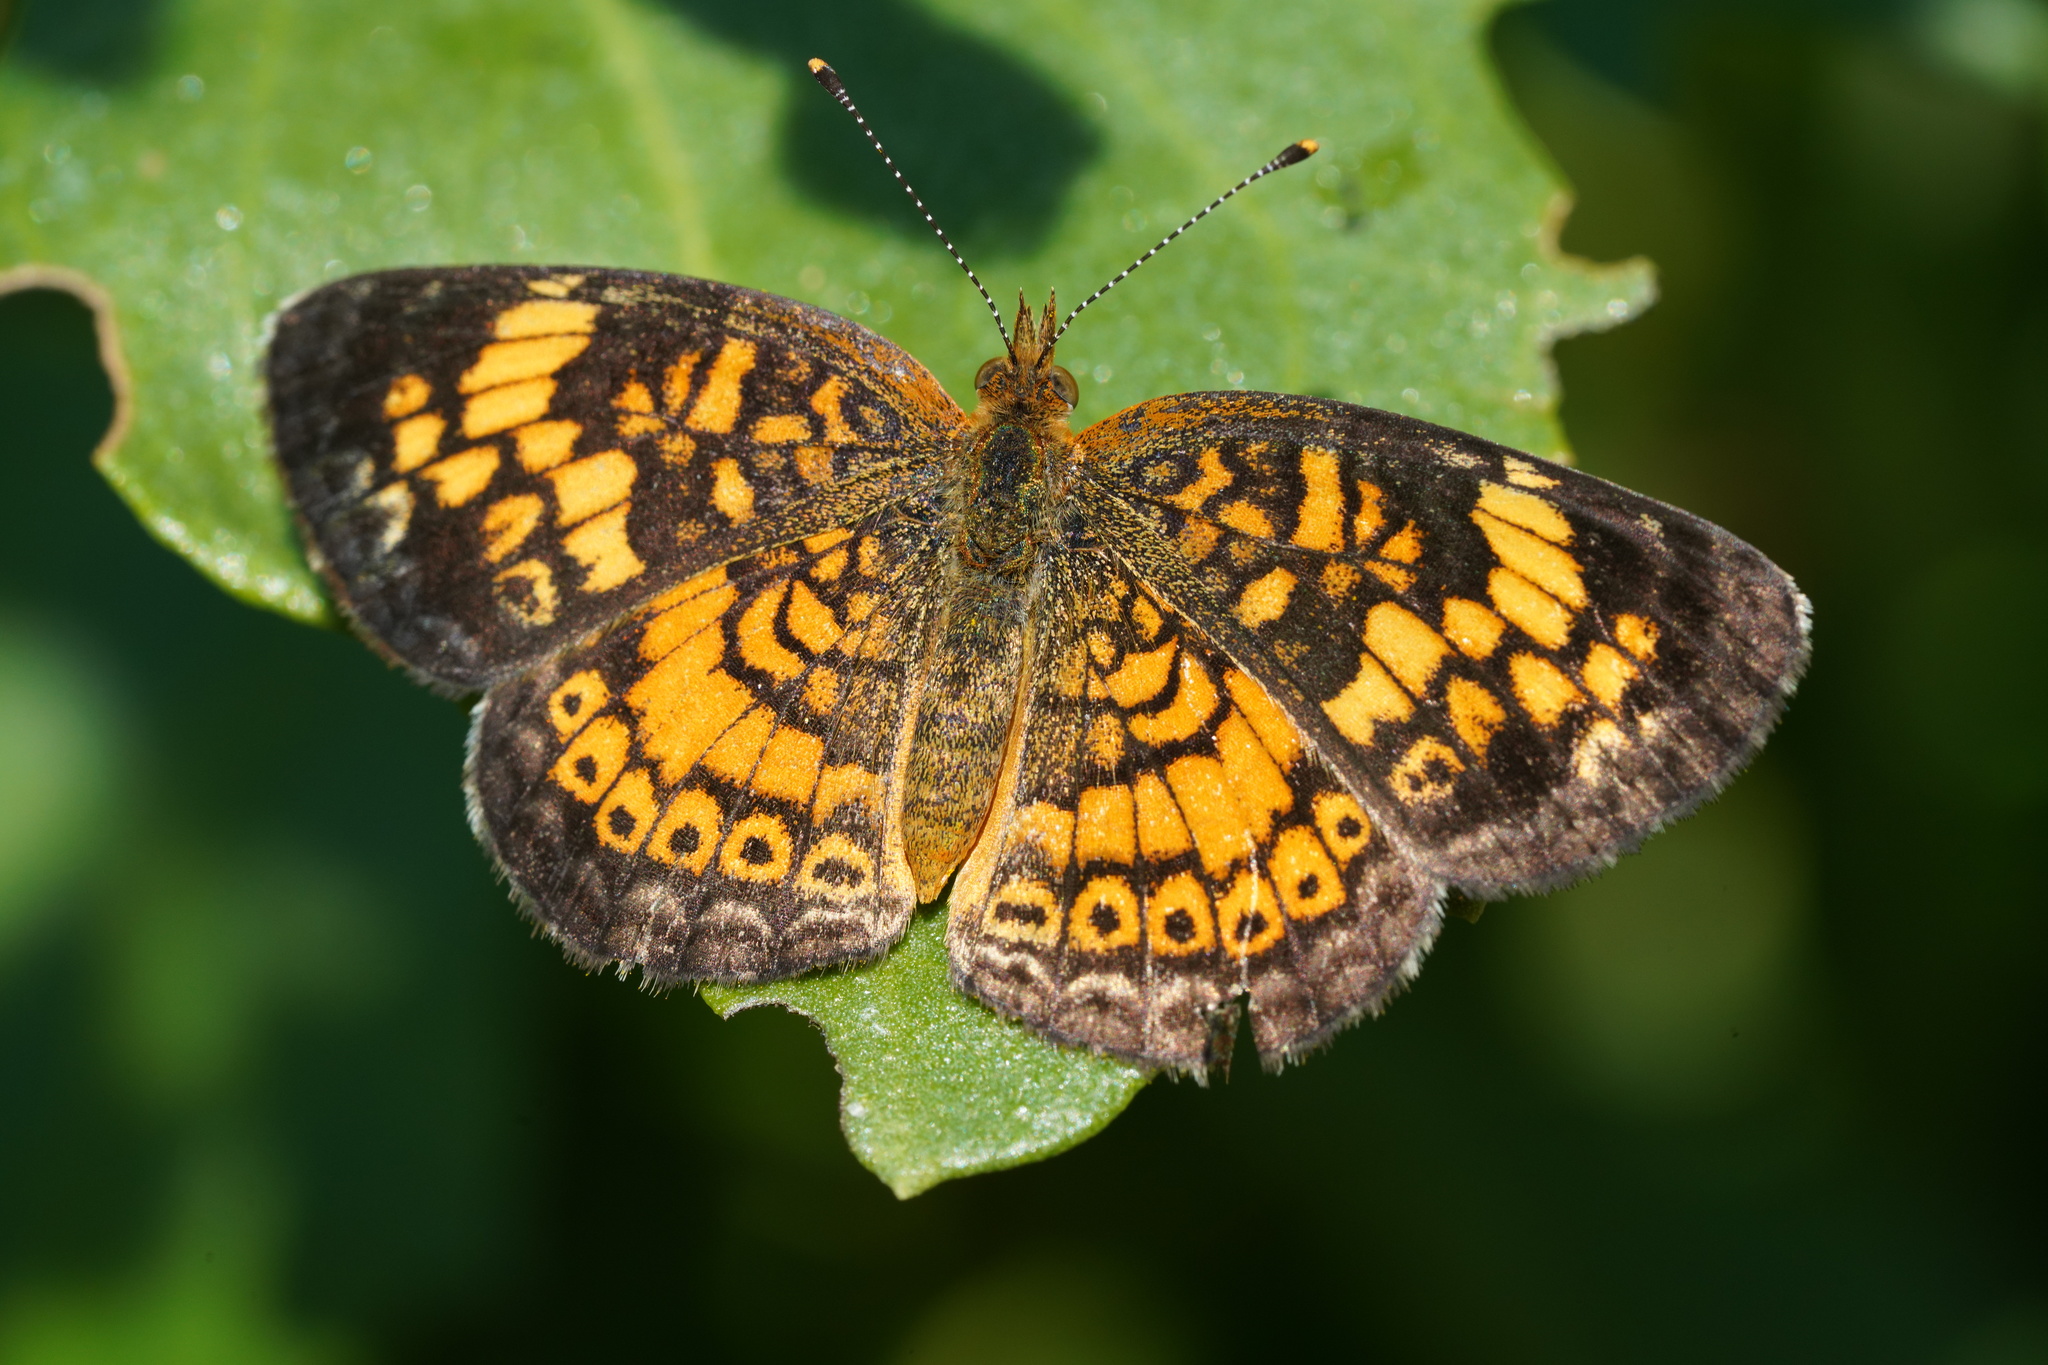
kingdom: Animalia
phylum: Arthropoda
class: Insecta
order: Lepidoptera
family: Nymphalidae
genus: Phyciodes
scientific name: Phyciodes tharos
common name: Pearl crescent
